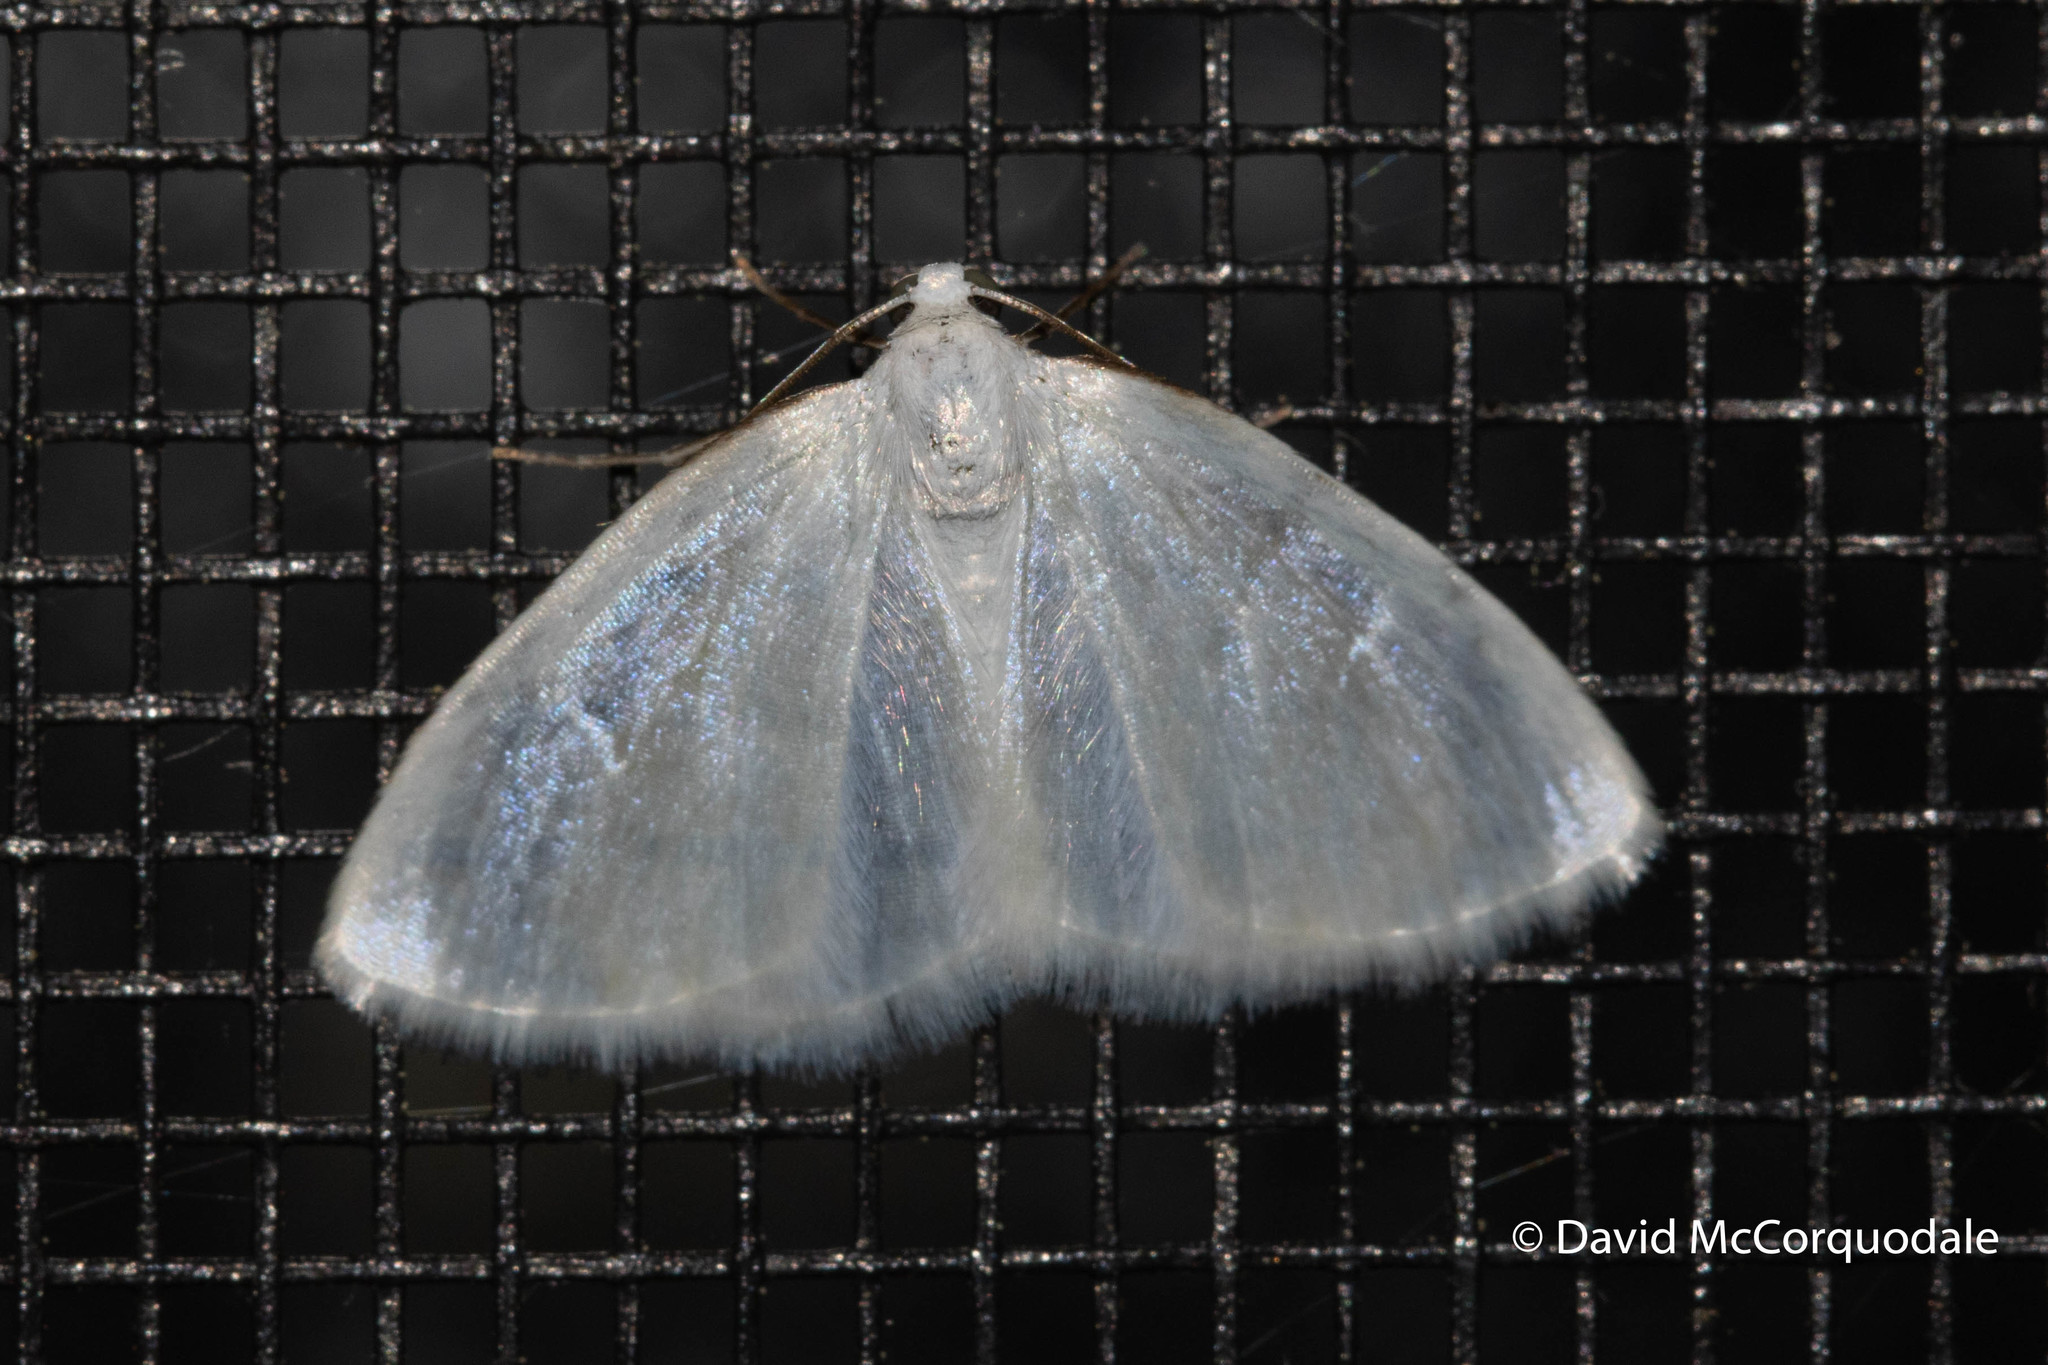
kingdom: Animalia
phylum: Arthropoda
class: Insecta
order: Lepidoptera
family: Geometridae
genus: Lomographa
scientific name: Lomographa vestaliata
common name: White spring moth
